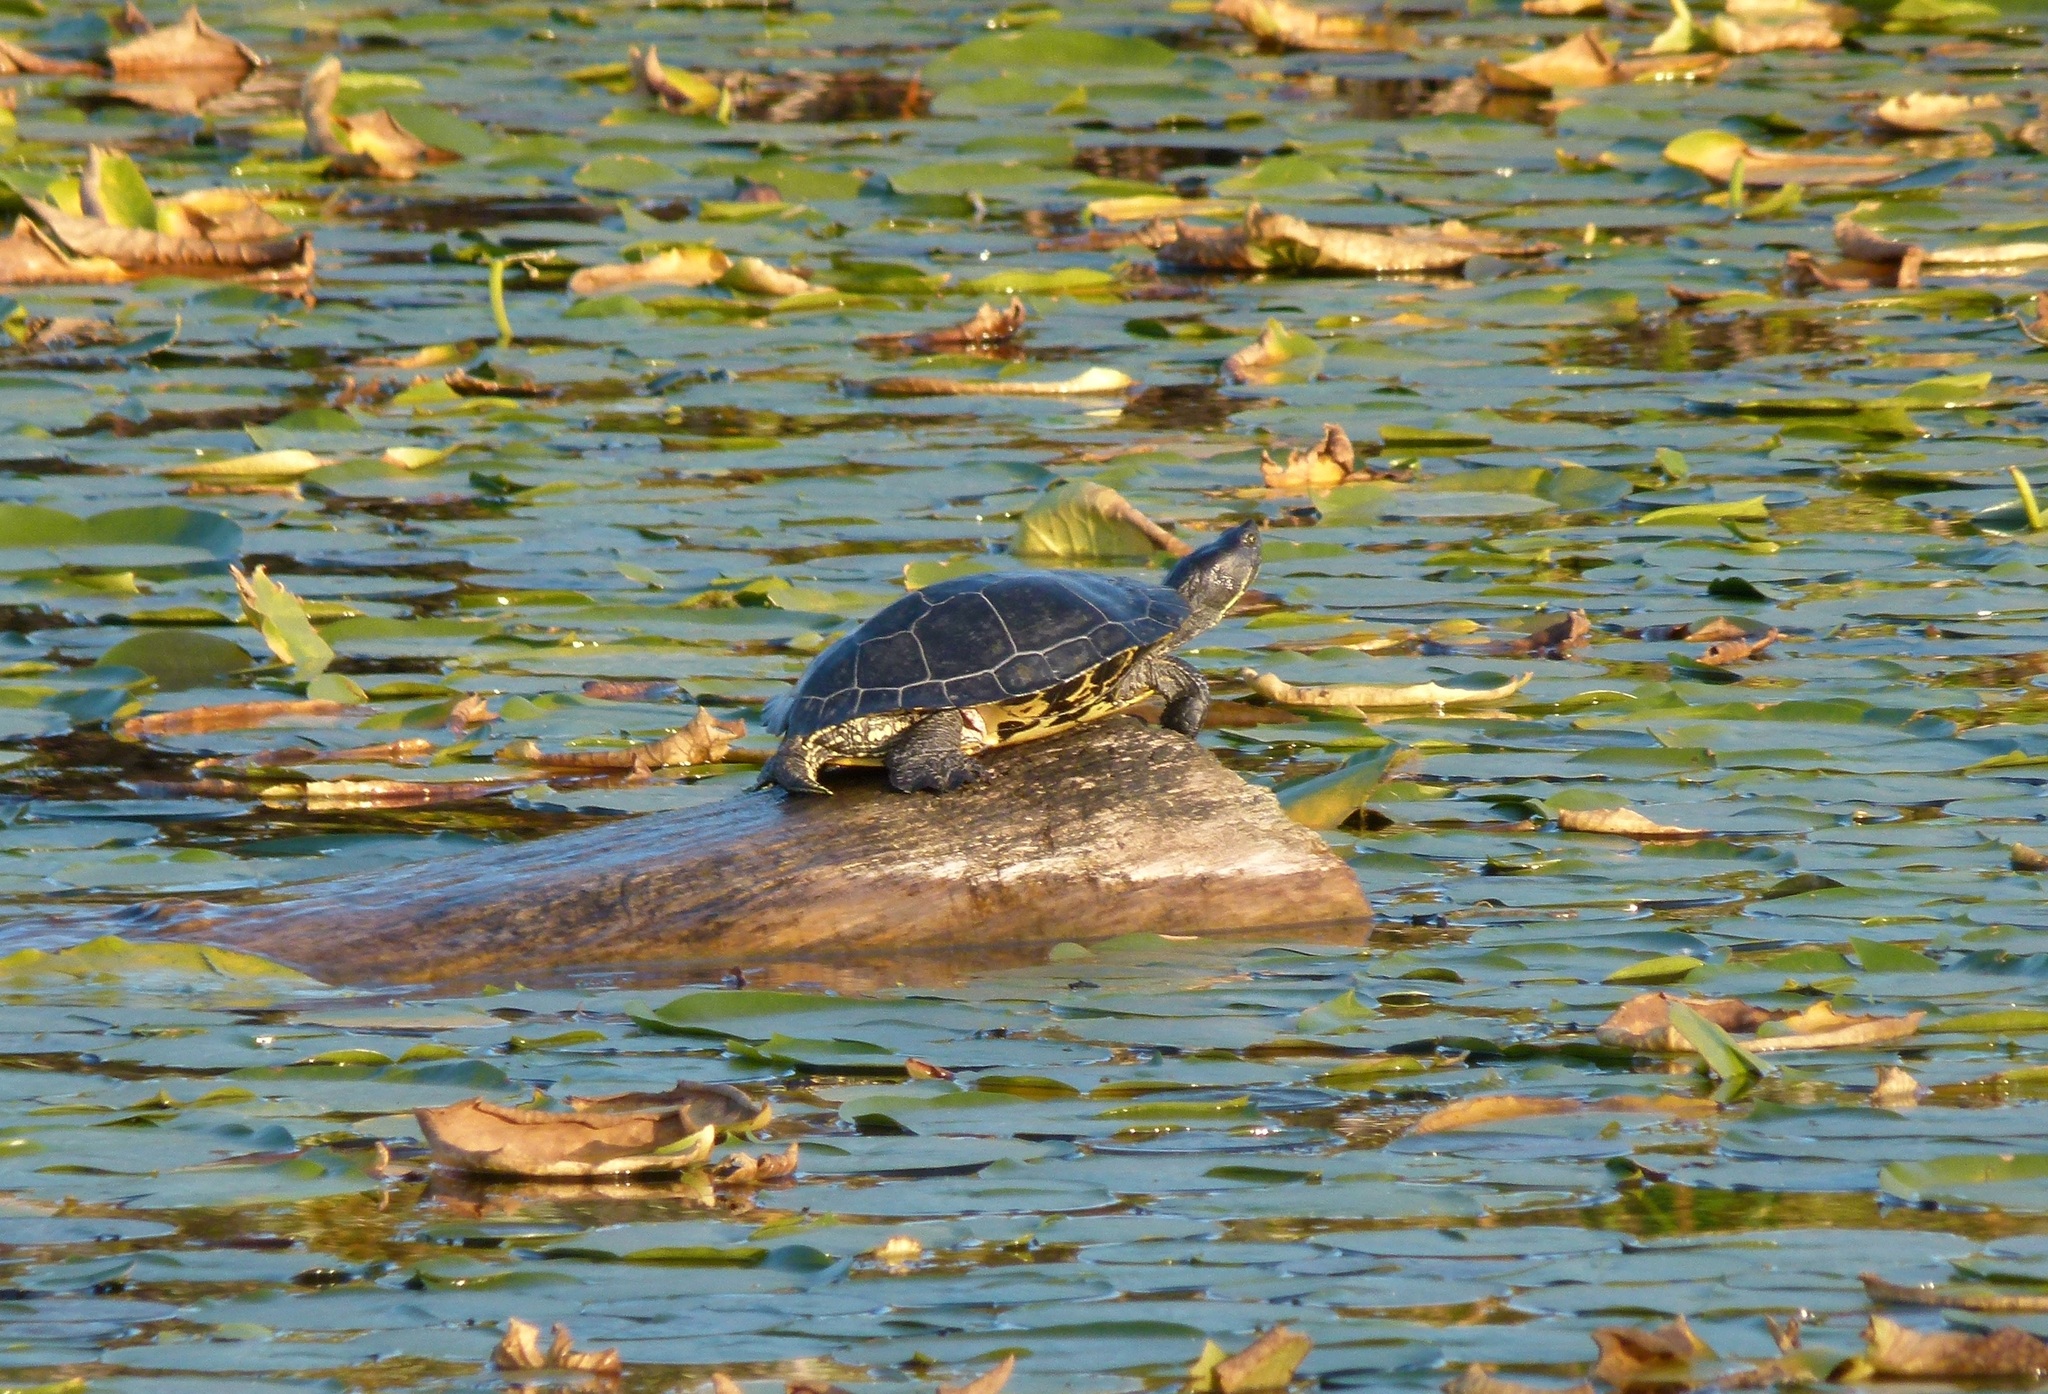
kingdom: Animalia
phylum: Chordata
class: Testudines
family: Emydidae
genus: Trachemys
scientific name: Trachemys scripta
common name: Slider
